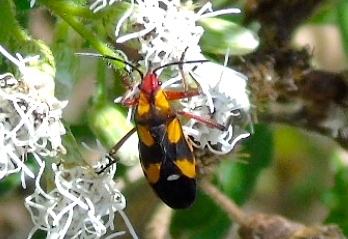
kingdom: Animalia
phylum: Arthropoda
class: Insecta
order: Hemiptera
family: Lygaeidae
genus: Oncopeltus
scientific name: Oncopeltus sexmaculatus
